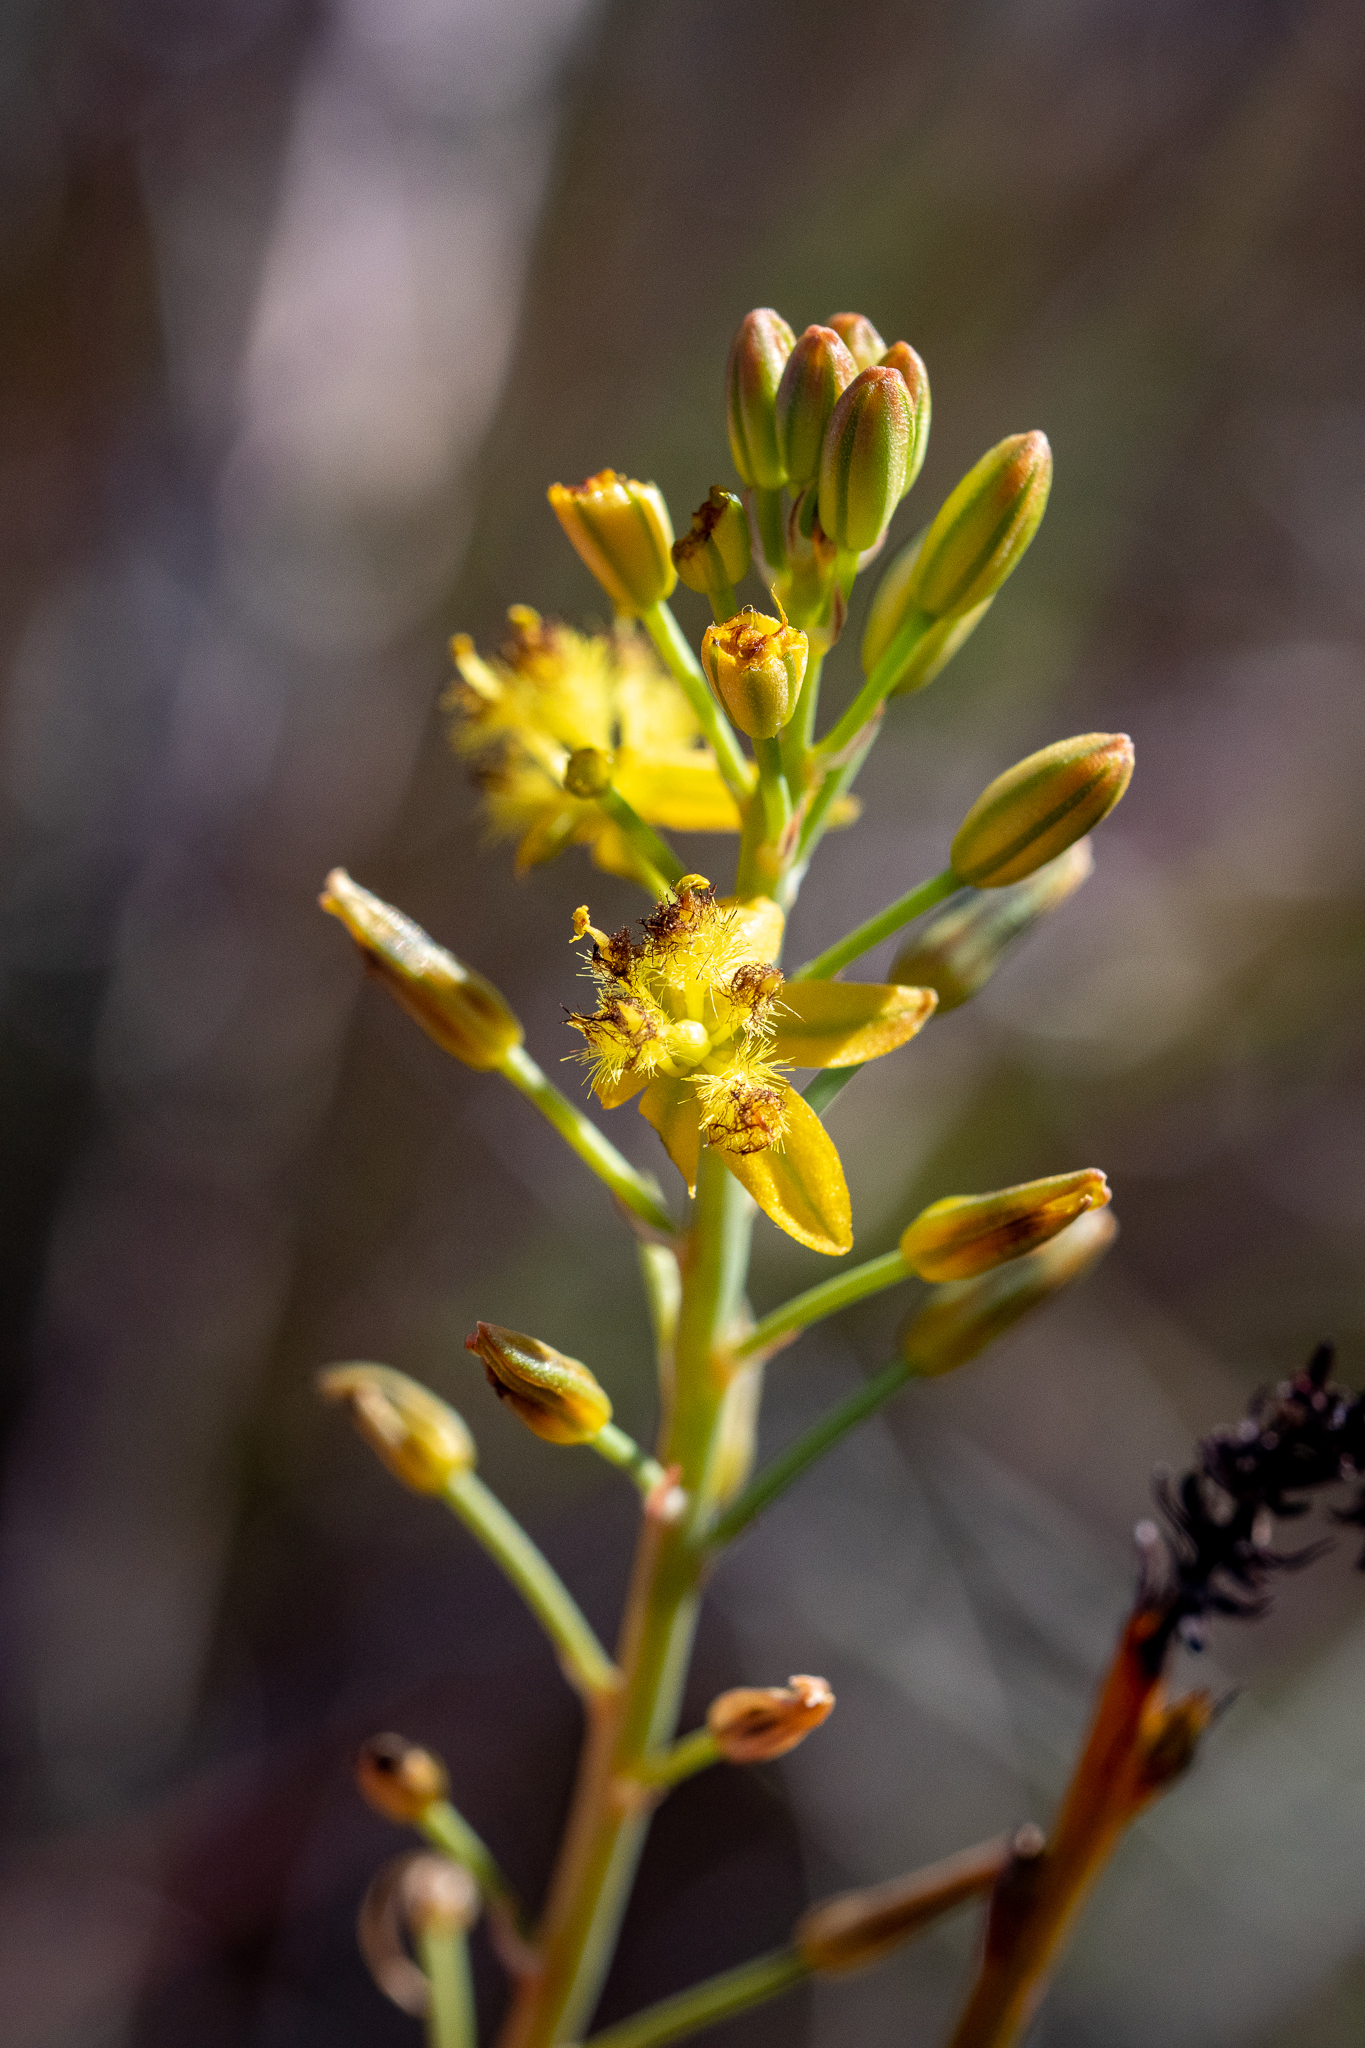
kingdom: Plantae
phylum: Tracheophyta
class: Liliopsida
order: Asparagales
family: Asphodelaceae
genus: Bulbine
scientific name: Bulbine favosa
